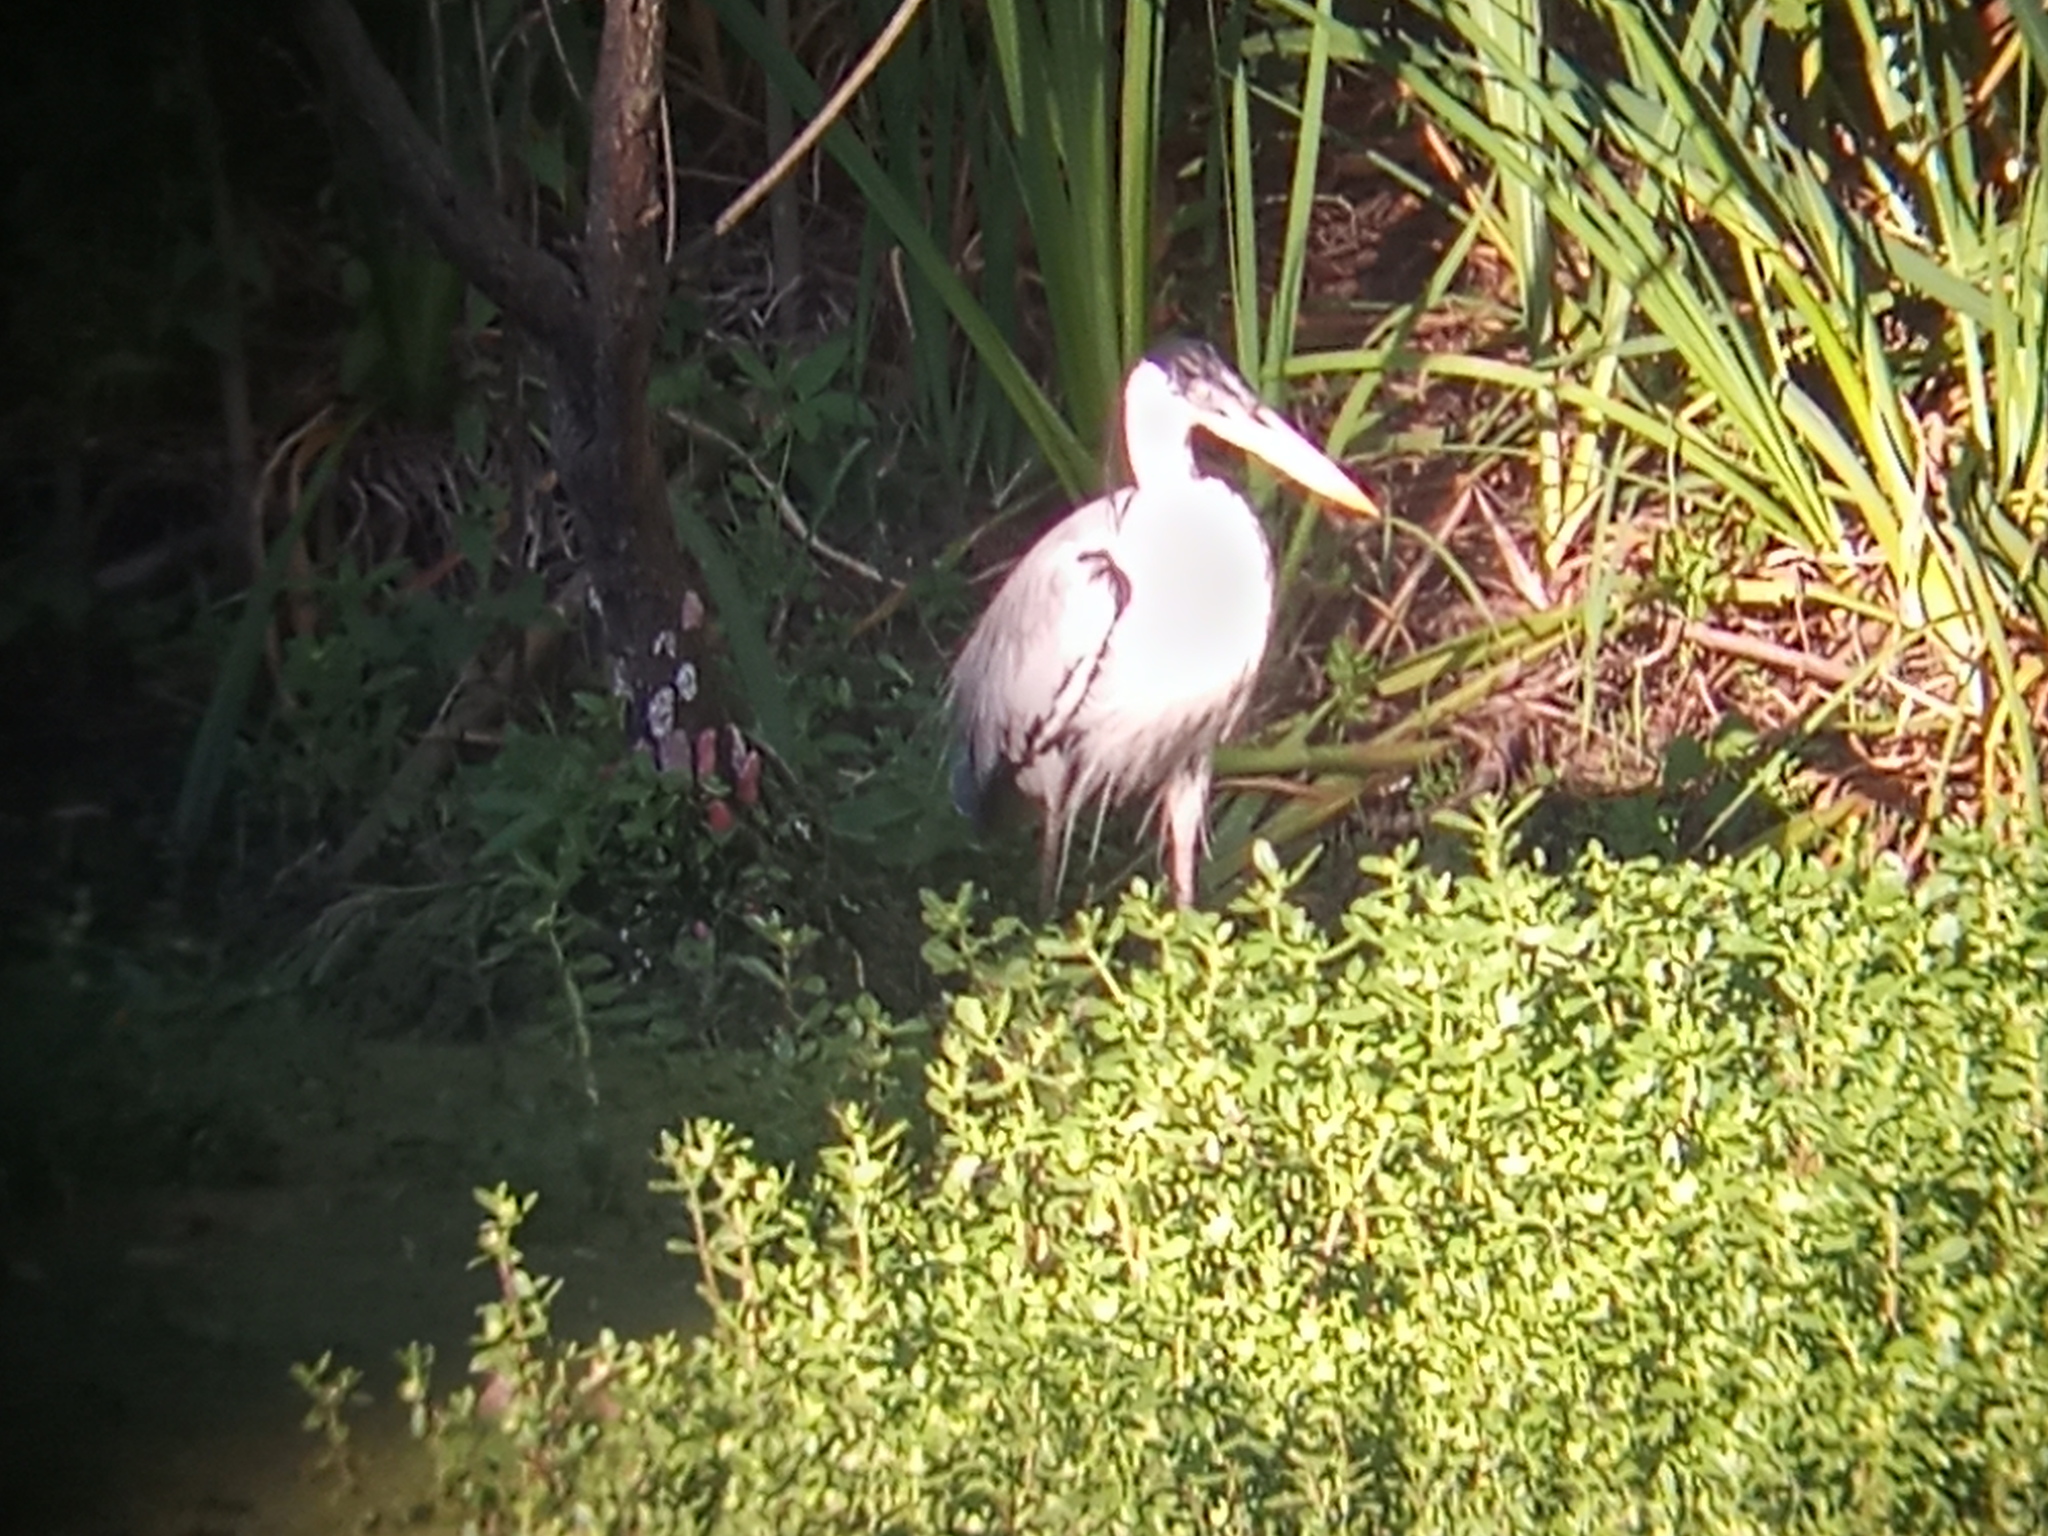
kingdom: Animalia
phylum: Chordata
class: Aves
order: Pelecaniformes
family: Ardeidae
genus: Ardea
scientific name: Ardea cocoi
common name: Cocoi heron
